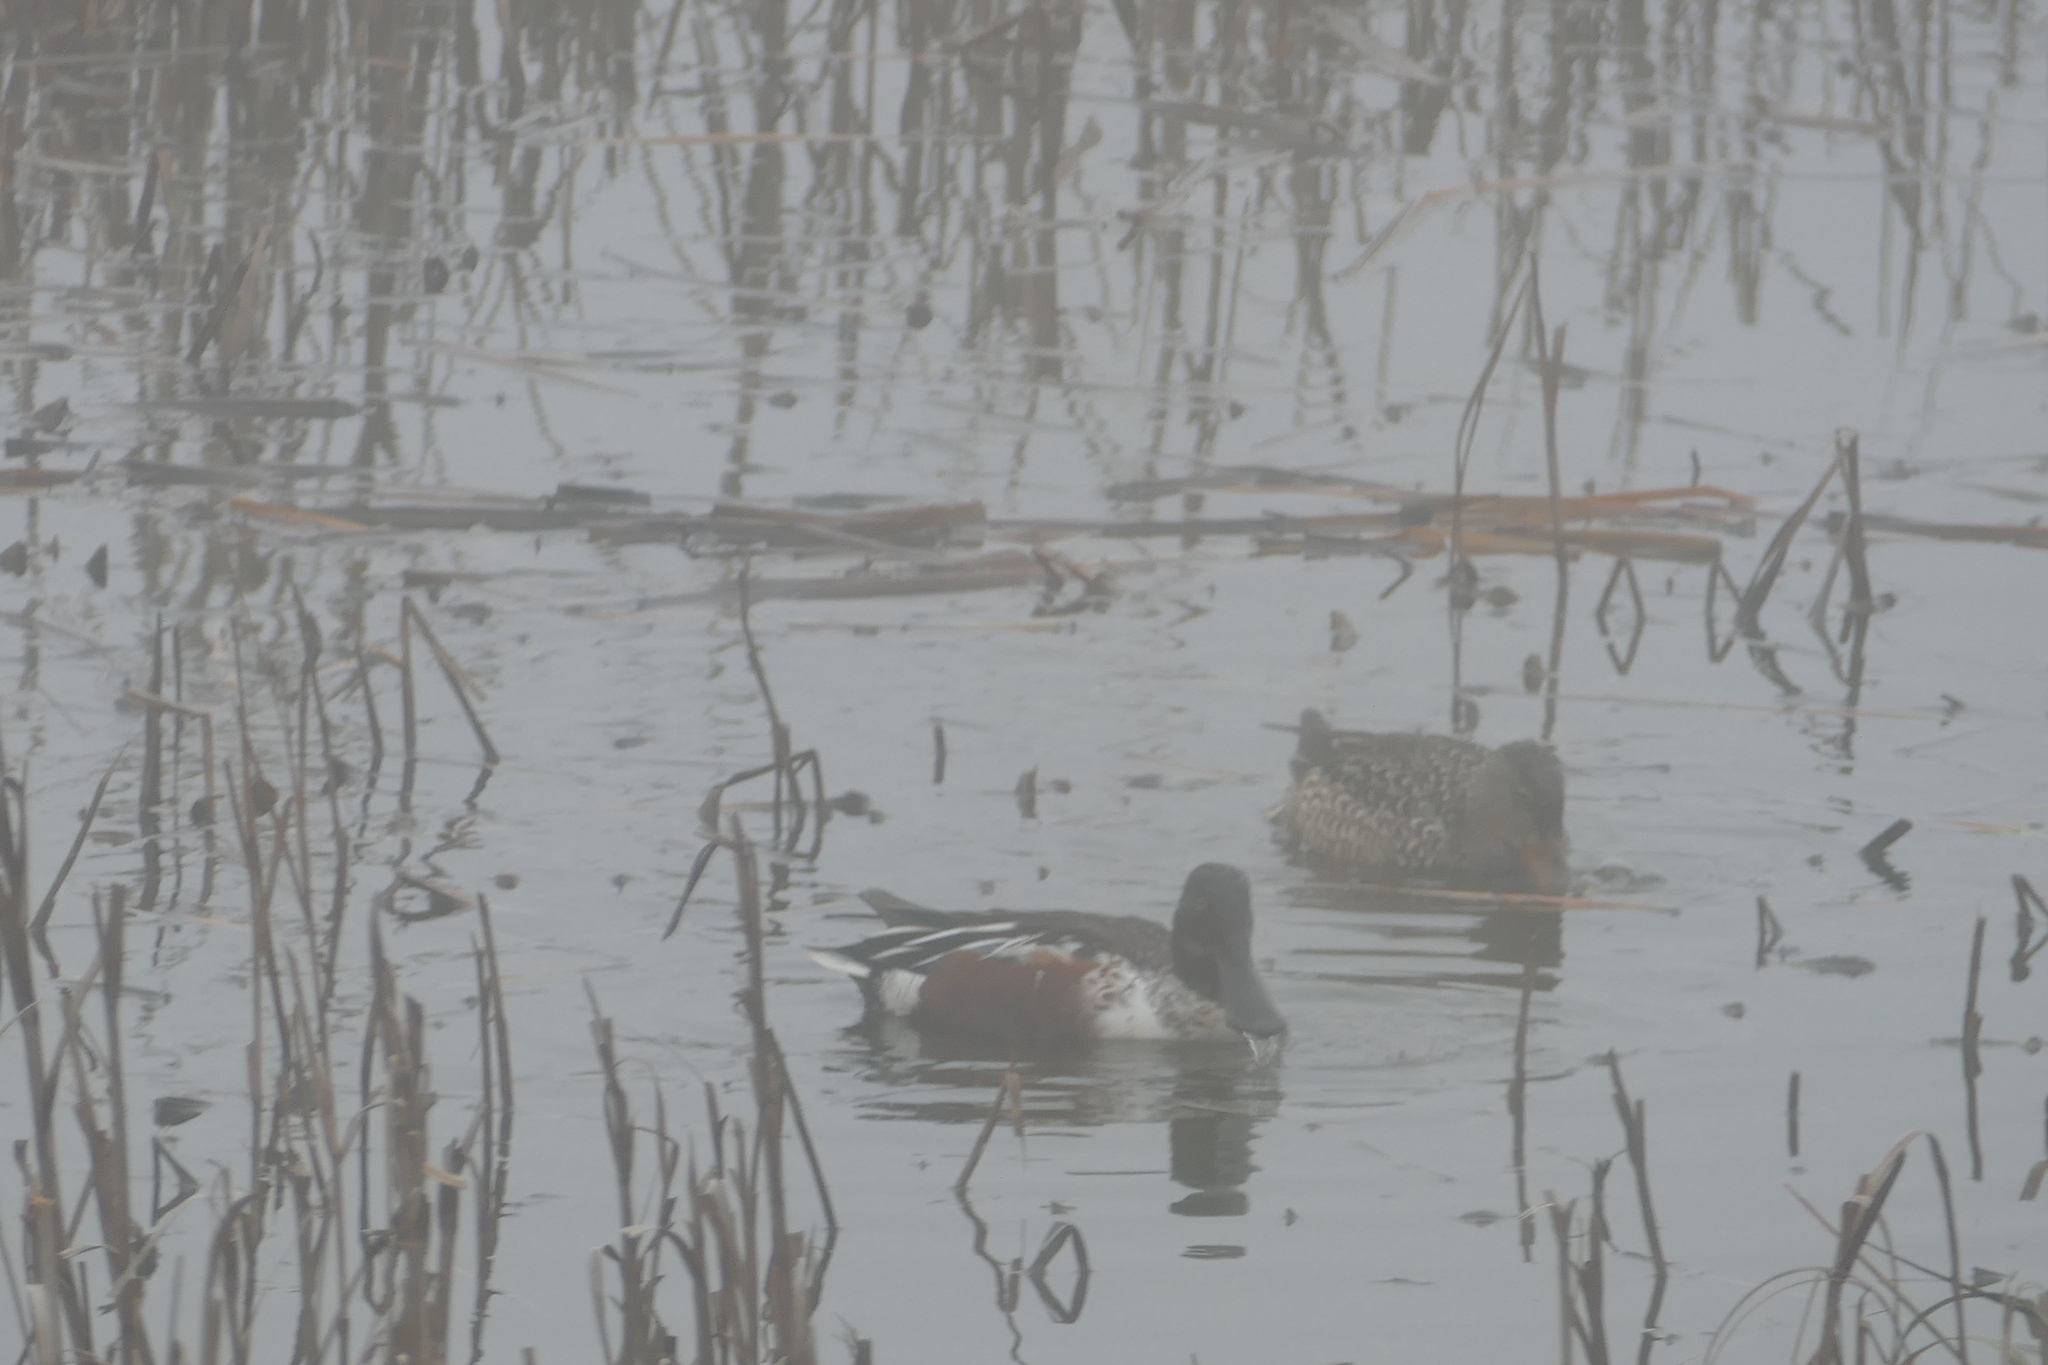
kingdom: Animalia
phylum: Chordata
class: Aves
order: Anseriformes
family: Anatidae
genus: Spatula
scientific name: Spatula clypeata
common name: Northern shoveler
